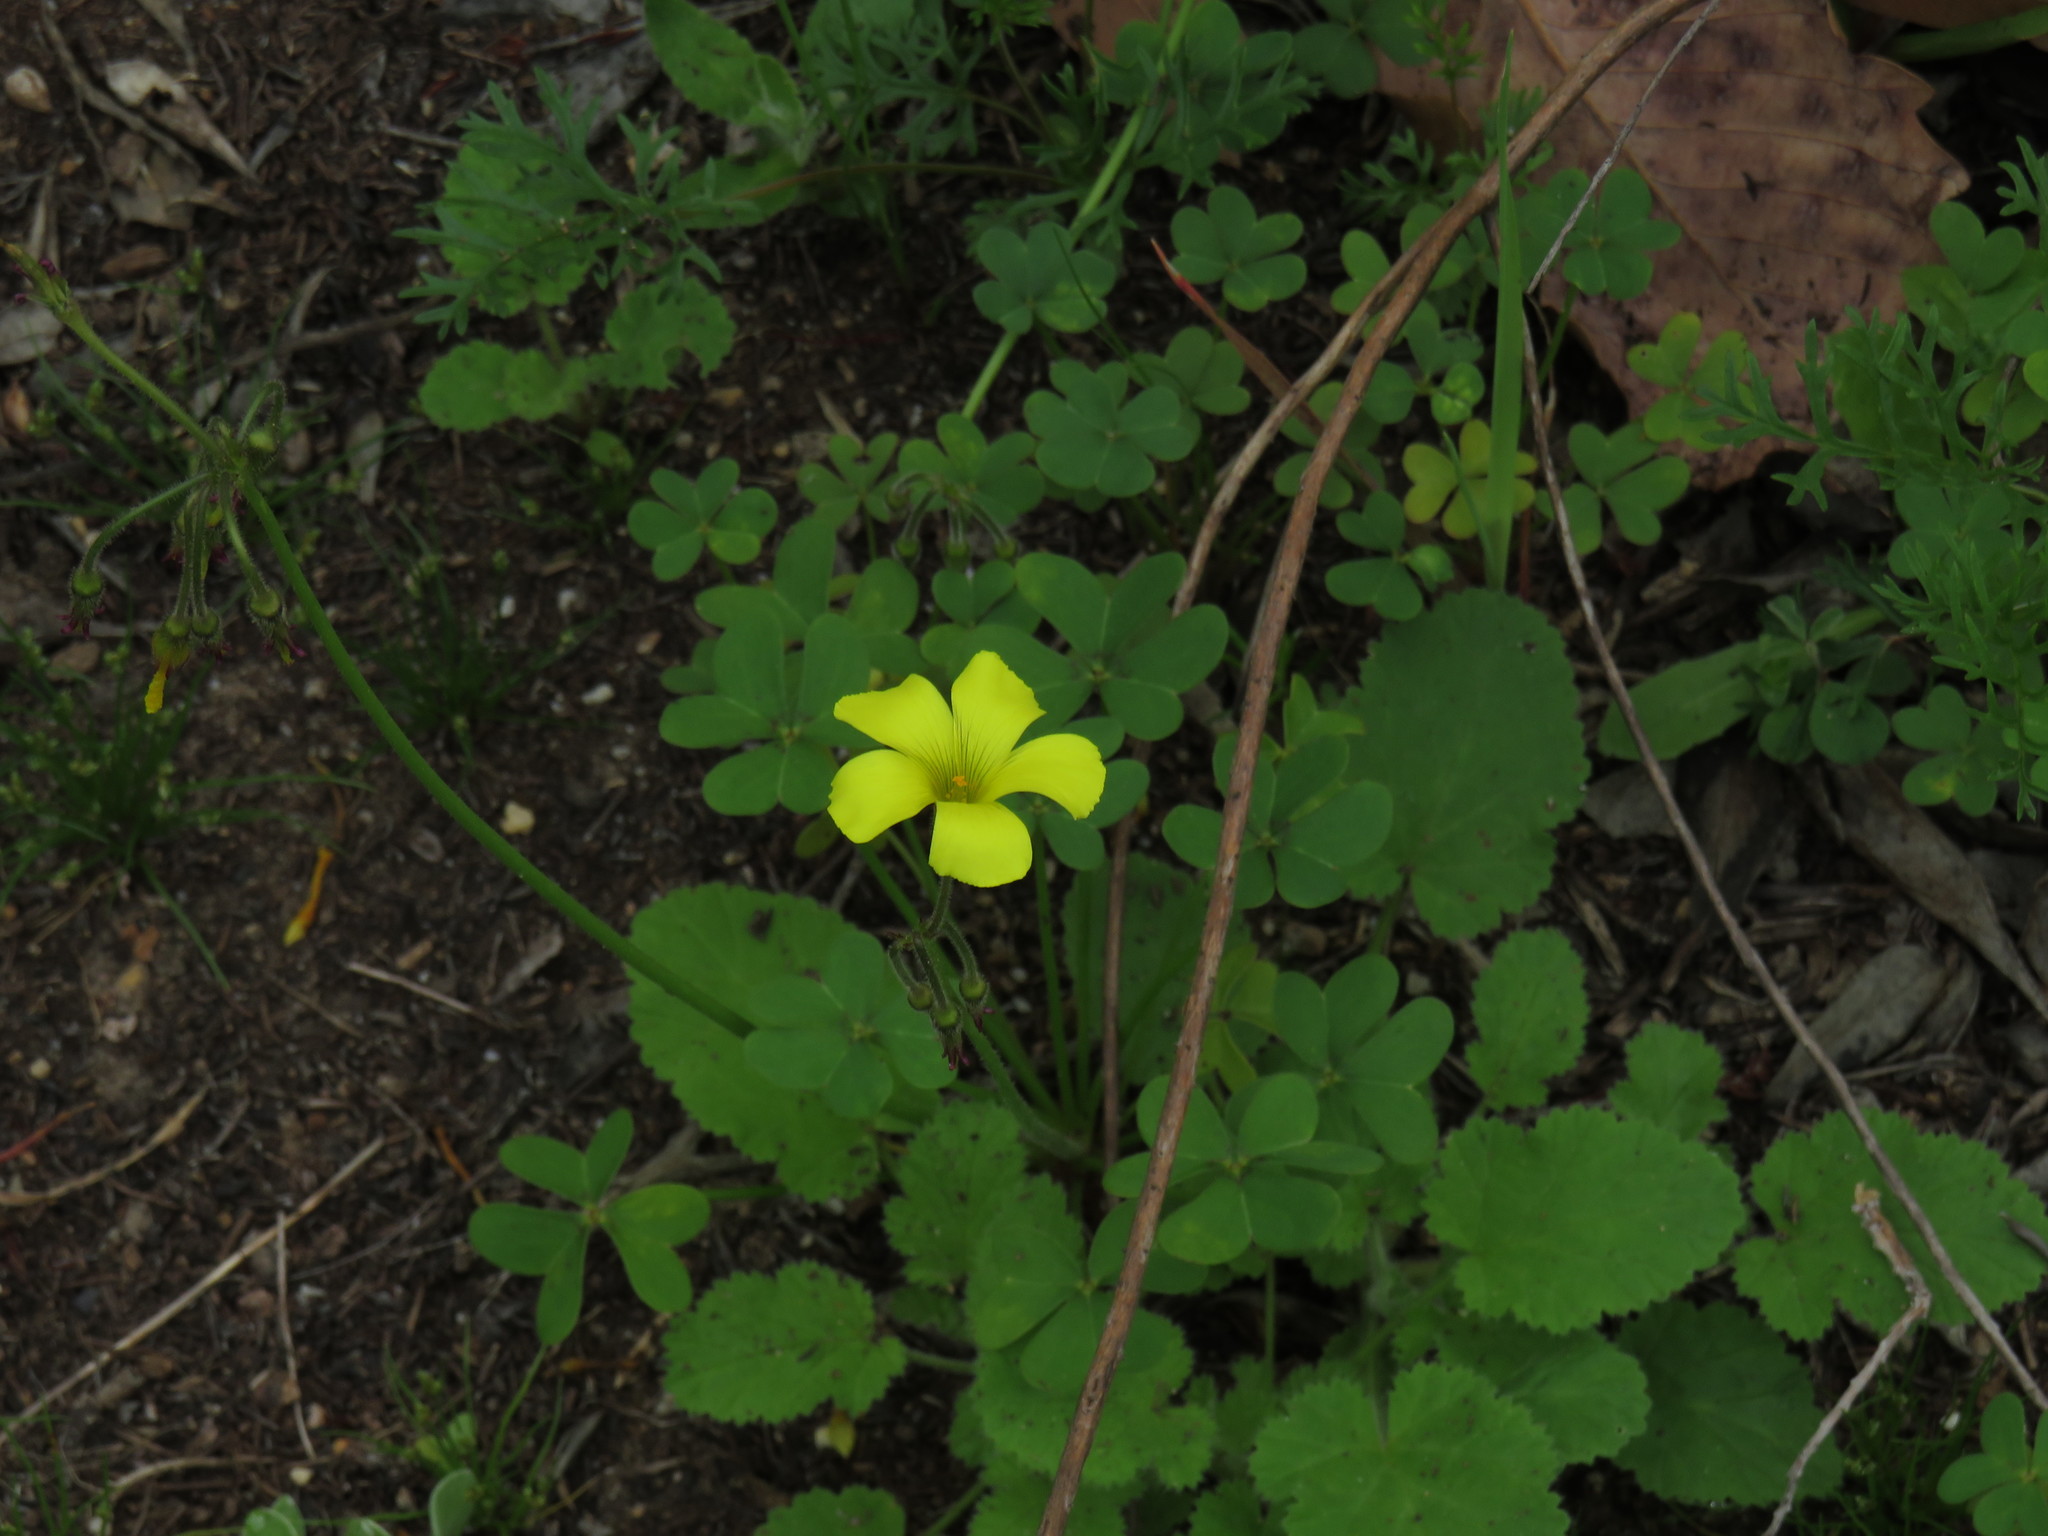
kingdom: Plantae
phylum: Tracheophyta
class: Magnoliopsida
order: Oxalidales
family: Oxalidaceae
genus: Oxalis
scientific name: Oxalis pes-caprae
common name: Bermuda-buttercup
